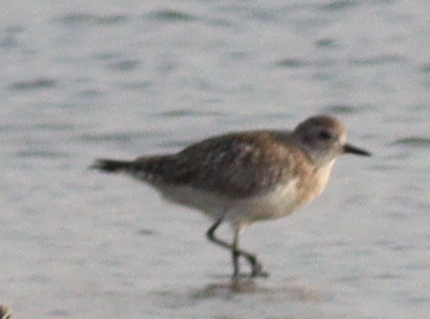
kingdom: Animalia
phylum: Chordata
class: Aves
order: Charadriiformes
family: Charadriidae
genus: Pluvialis
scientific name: Pluvialis squatarola
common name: Grey plover
